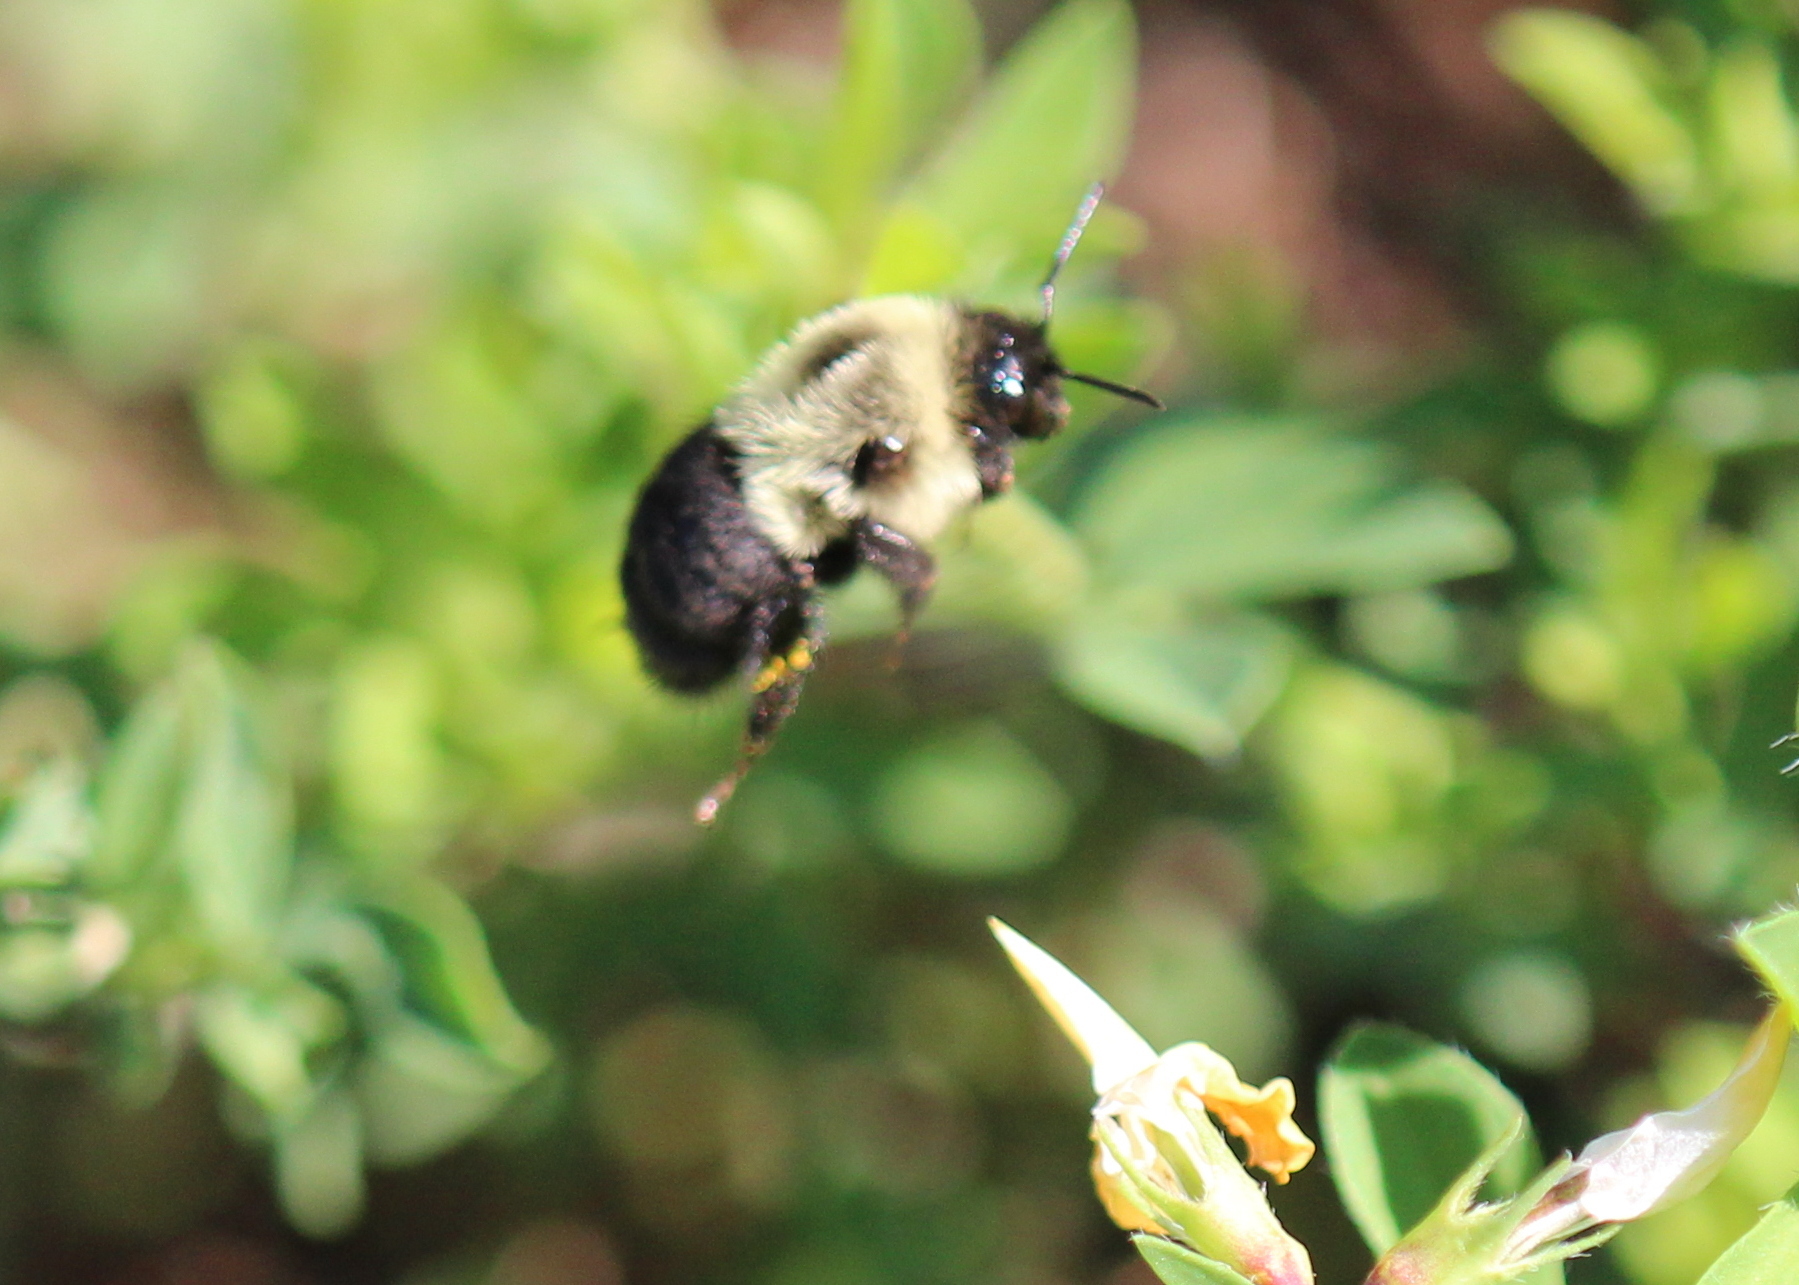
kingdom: Animalia
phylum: Arthropoda
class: Insecta
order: Hymenoptera
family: Apidae
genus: Bombus
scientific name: Bombus impatiens
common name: Common eastern bumble bee
